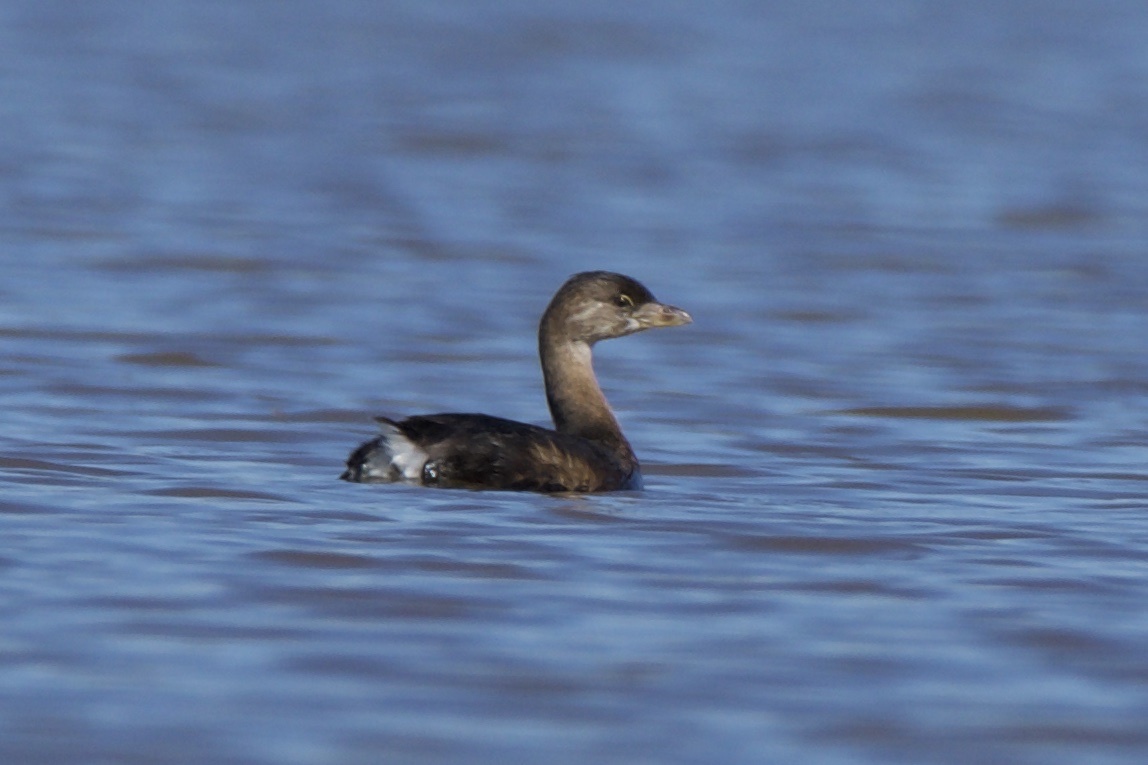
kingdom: Animalia
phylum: Chordata
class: Aves
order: Podicipediformes
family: Podicipedidae
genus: Podilymbus
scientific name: Podilymbus podiceps
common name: Pied-billed grebe
